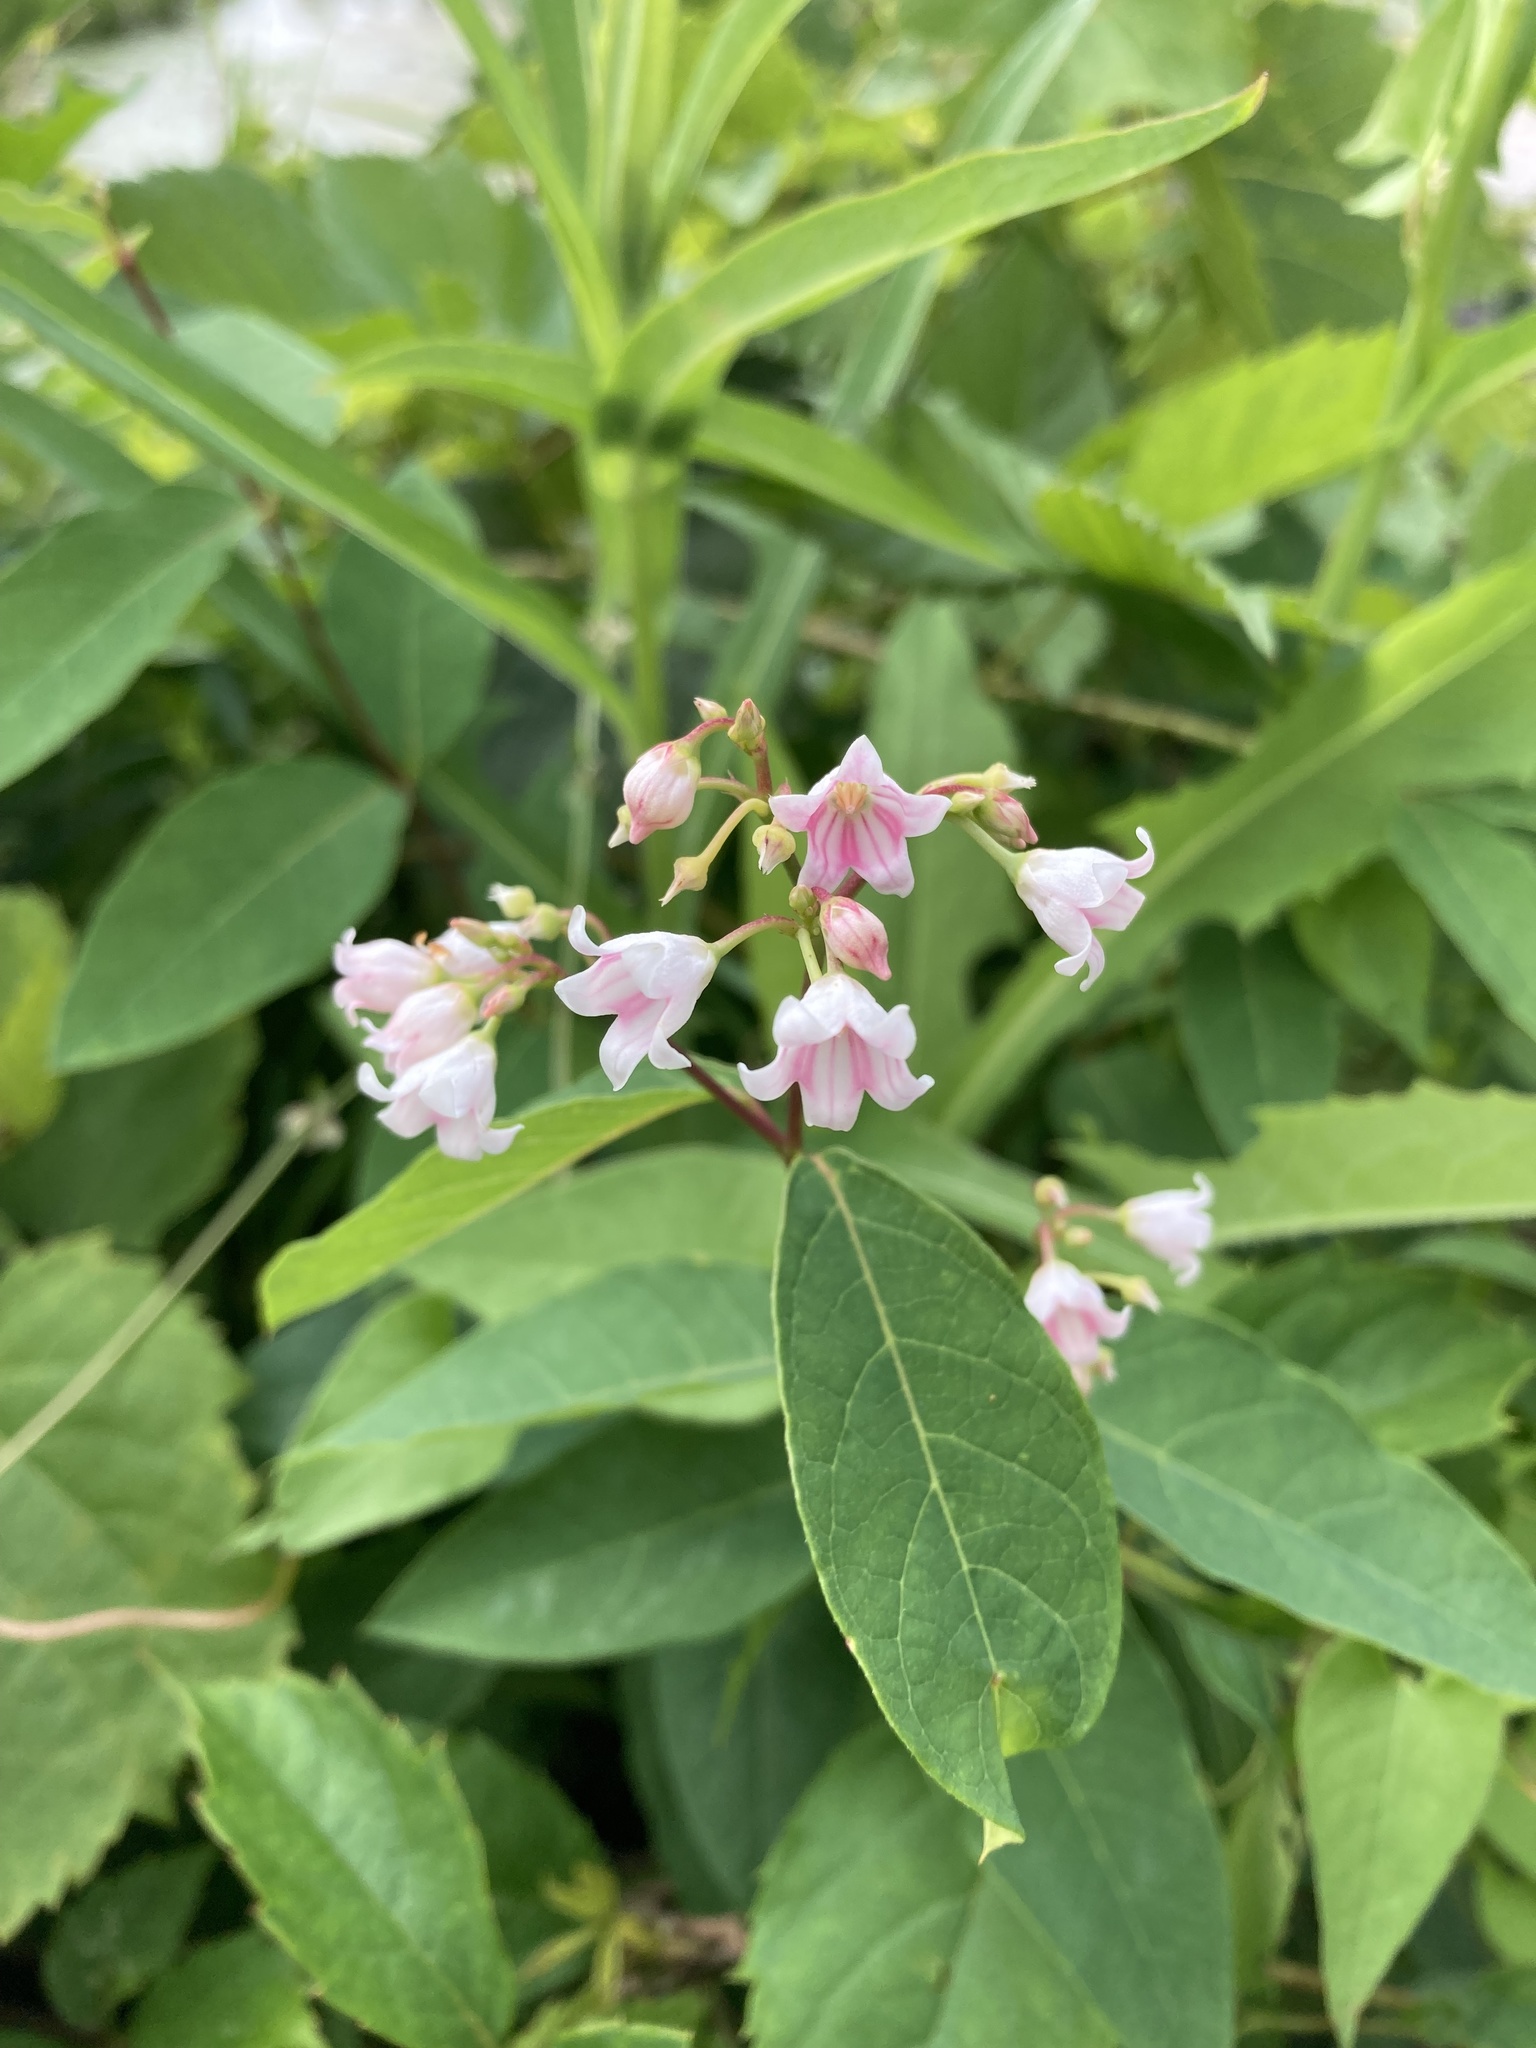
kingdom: Plantae
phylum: Tracheophyta
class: Magnoliopsida
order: Gentianales
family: Apocynaceae
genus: Apocynum
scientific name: Apocynum androsaemifolium
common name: Spreading dogbane
